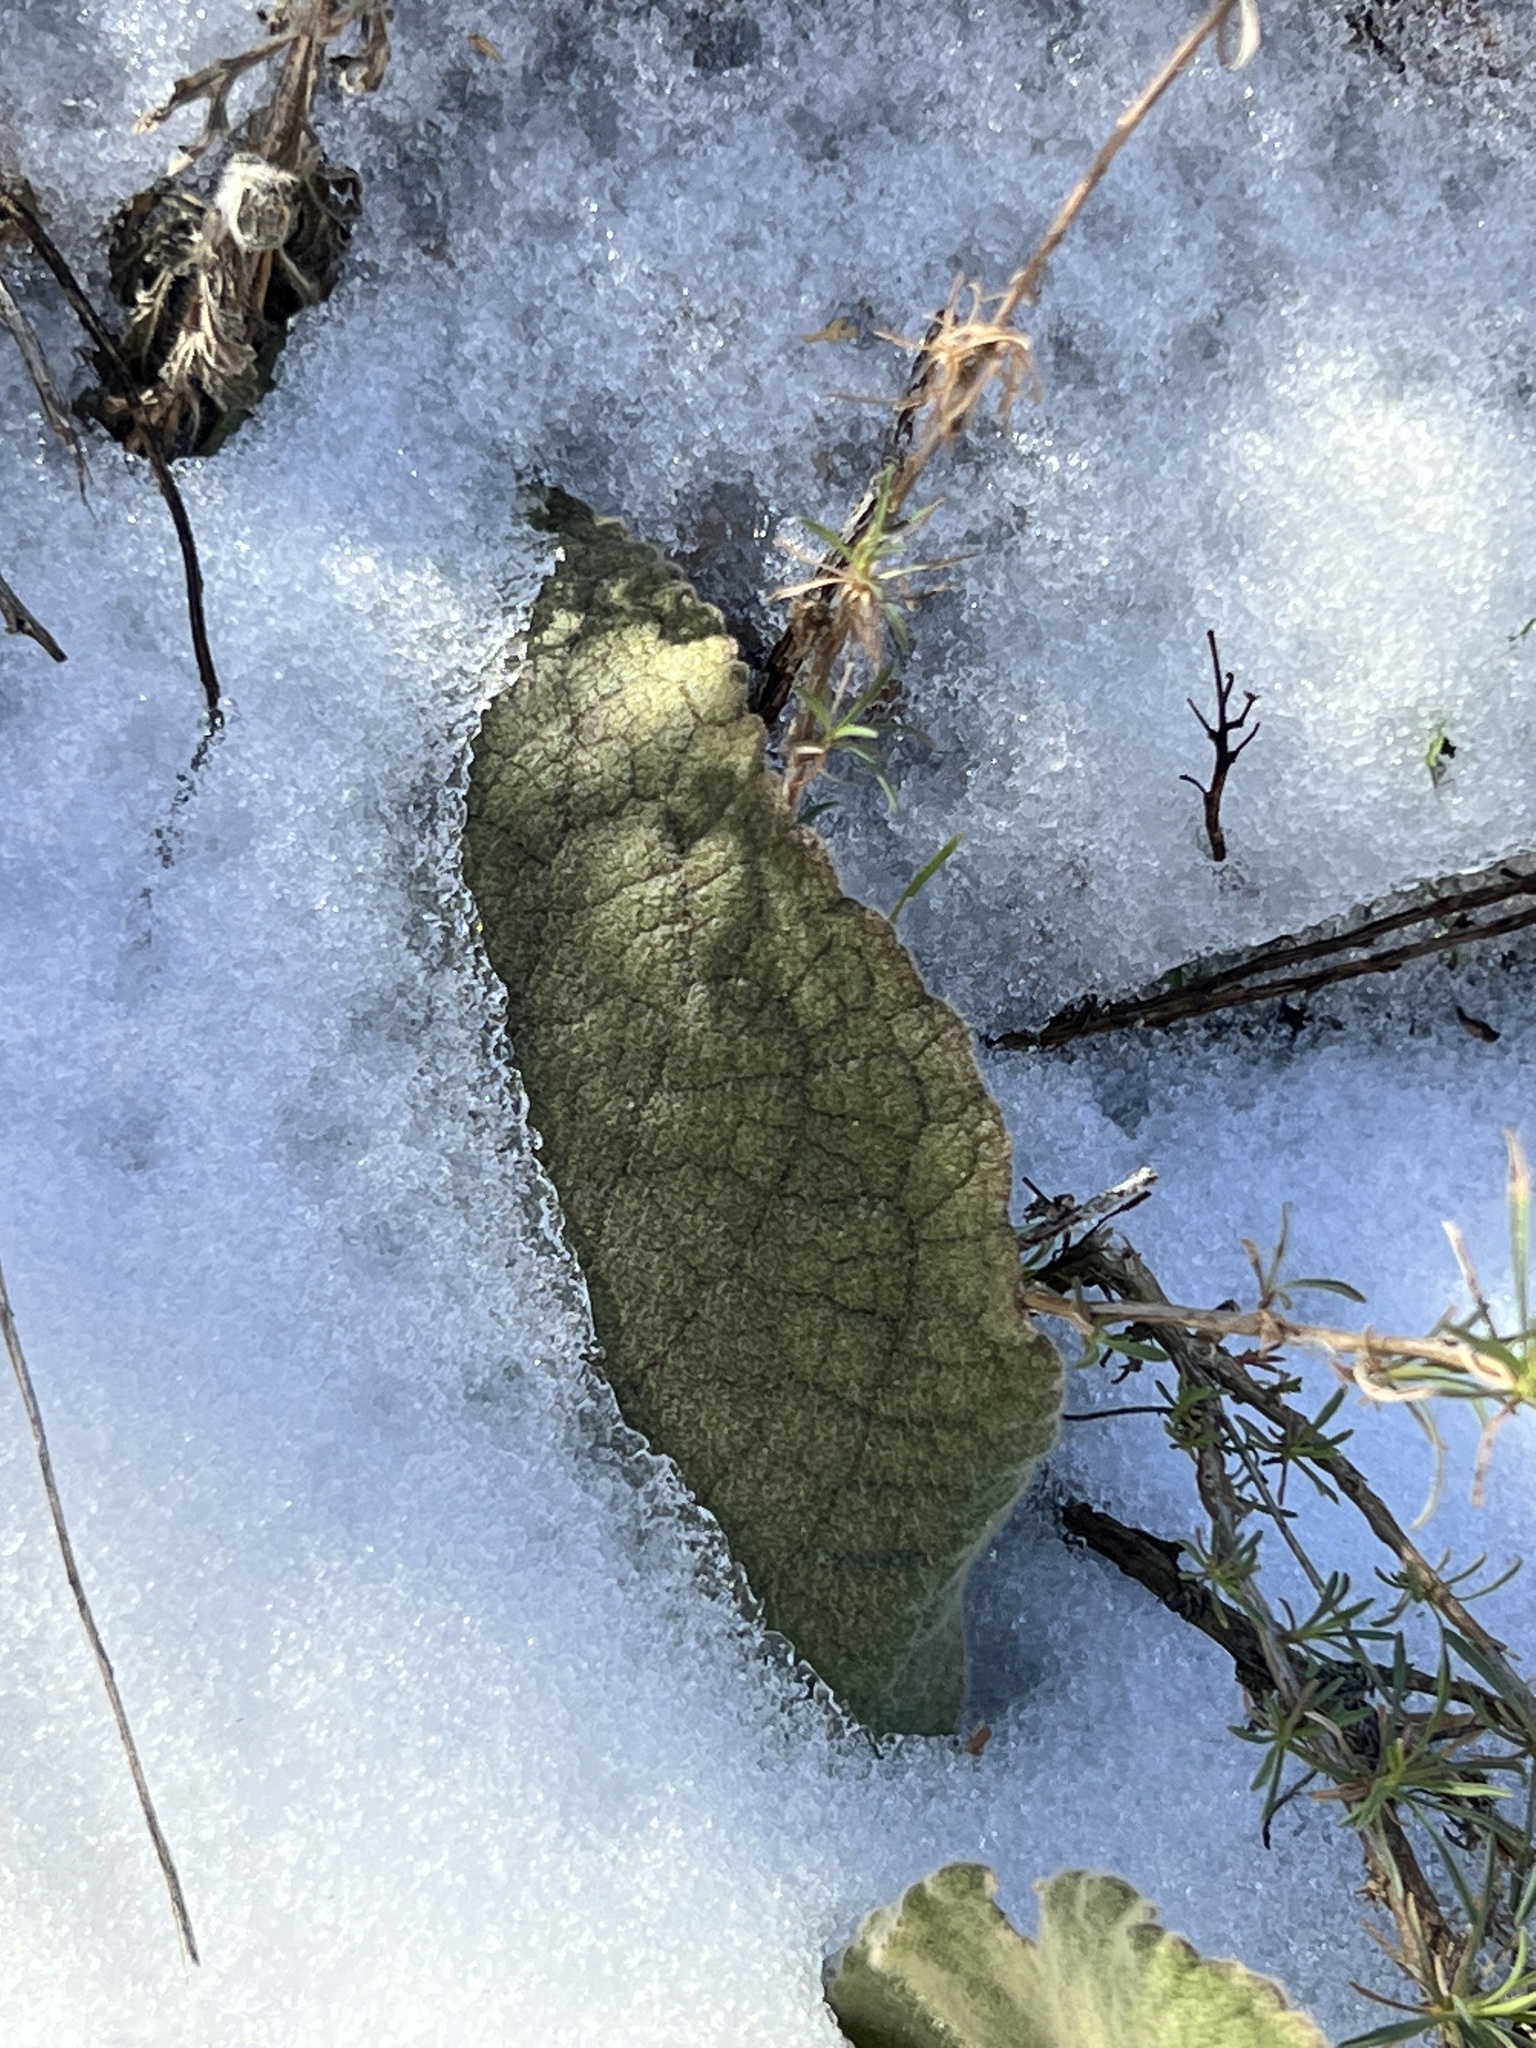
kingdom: Plantae
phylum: Tracheophyta
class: Magnoliopsida
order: Lamiales
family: Scrophulariaceae
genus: Verbascum
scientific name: Verbascum thapsus
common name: Common mullein
